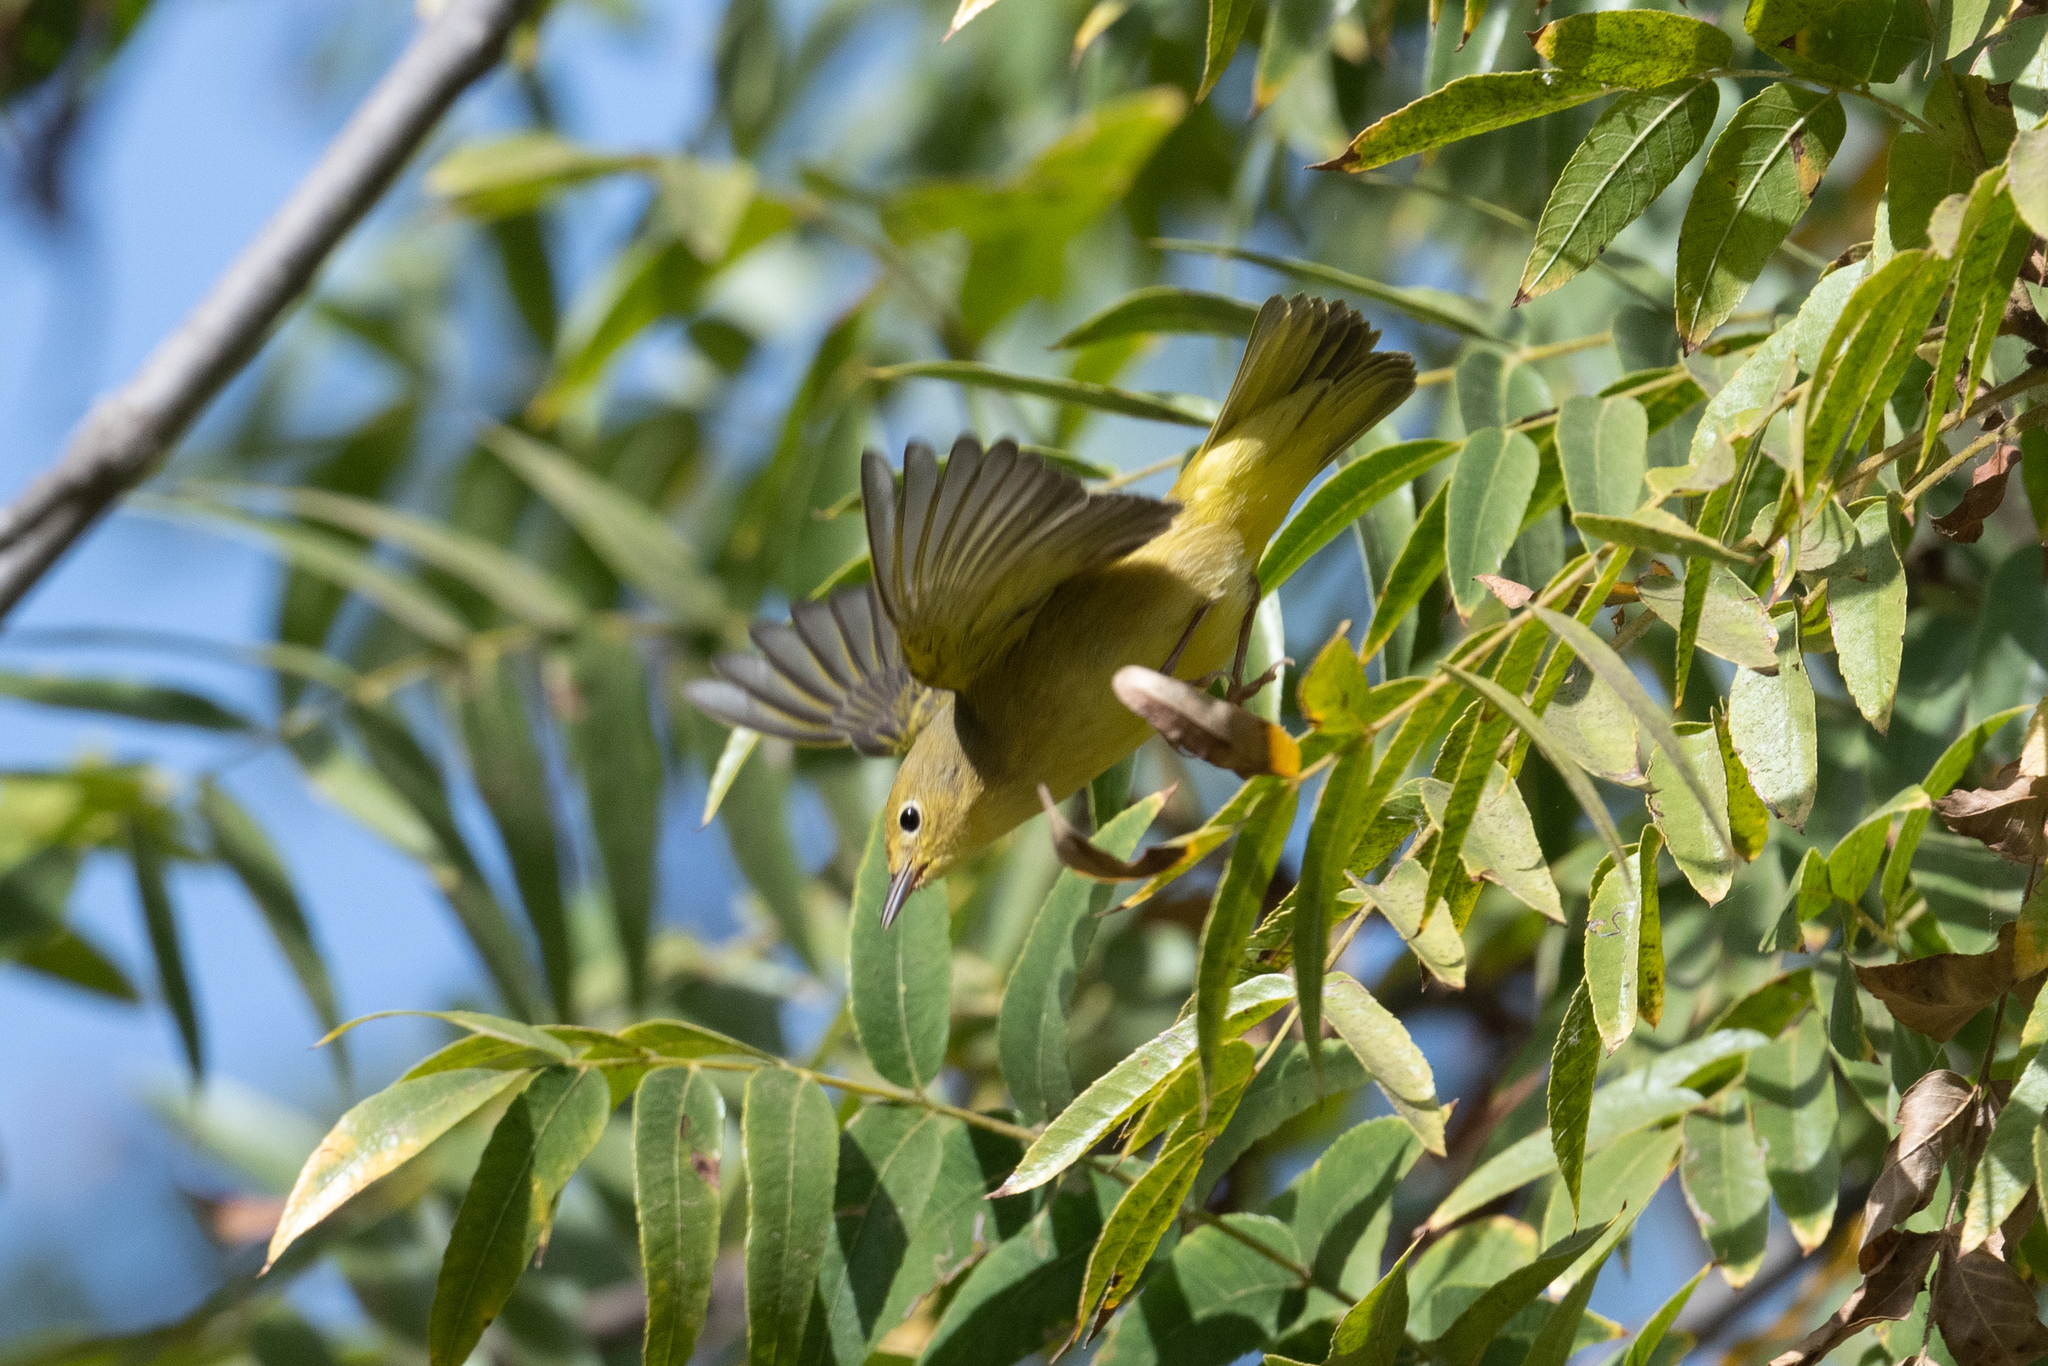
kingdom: Animalia
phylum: Chordata
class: Aves
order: Passeriformes
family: Parulidae
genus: Setophaga
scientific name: Setophaga petechia
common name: Yellow warbler
